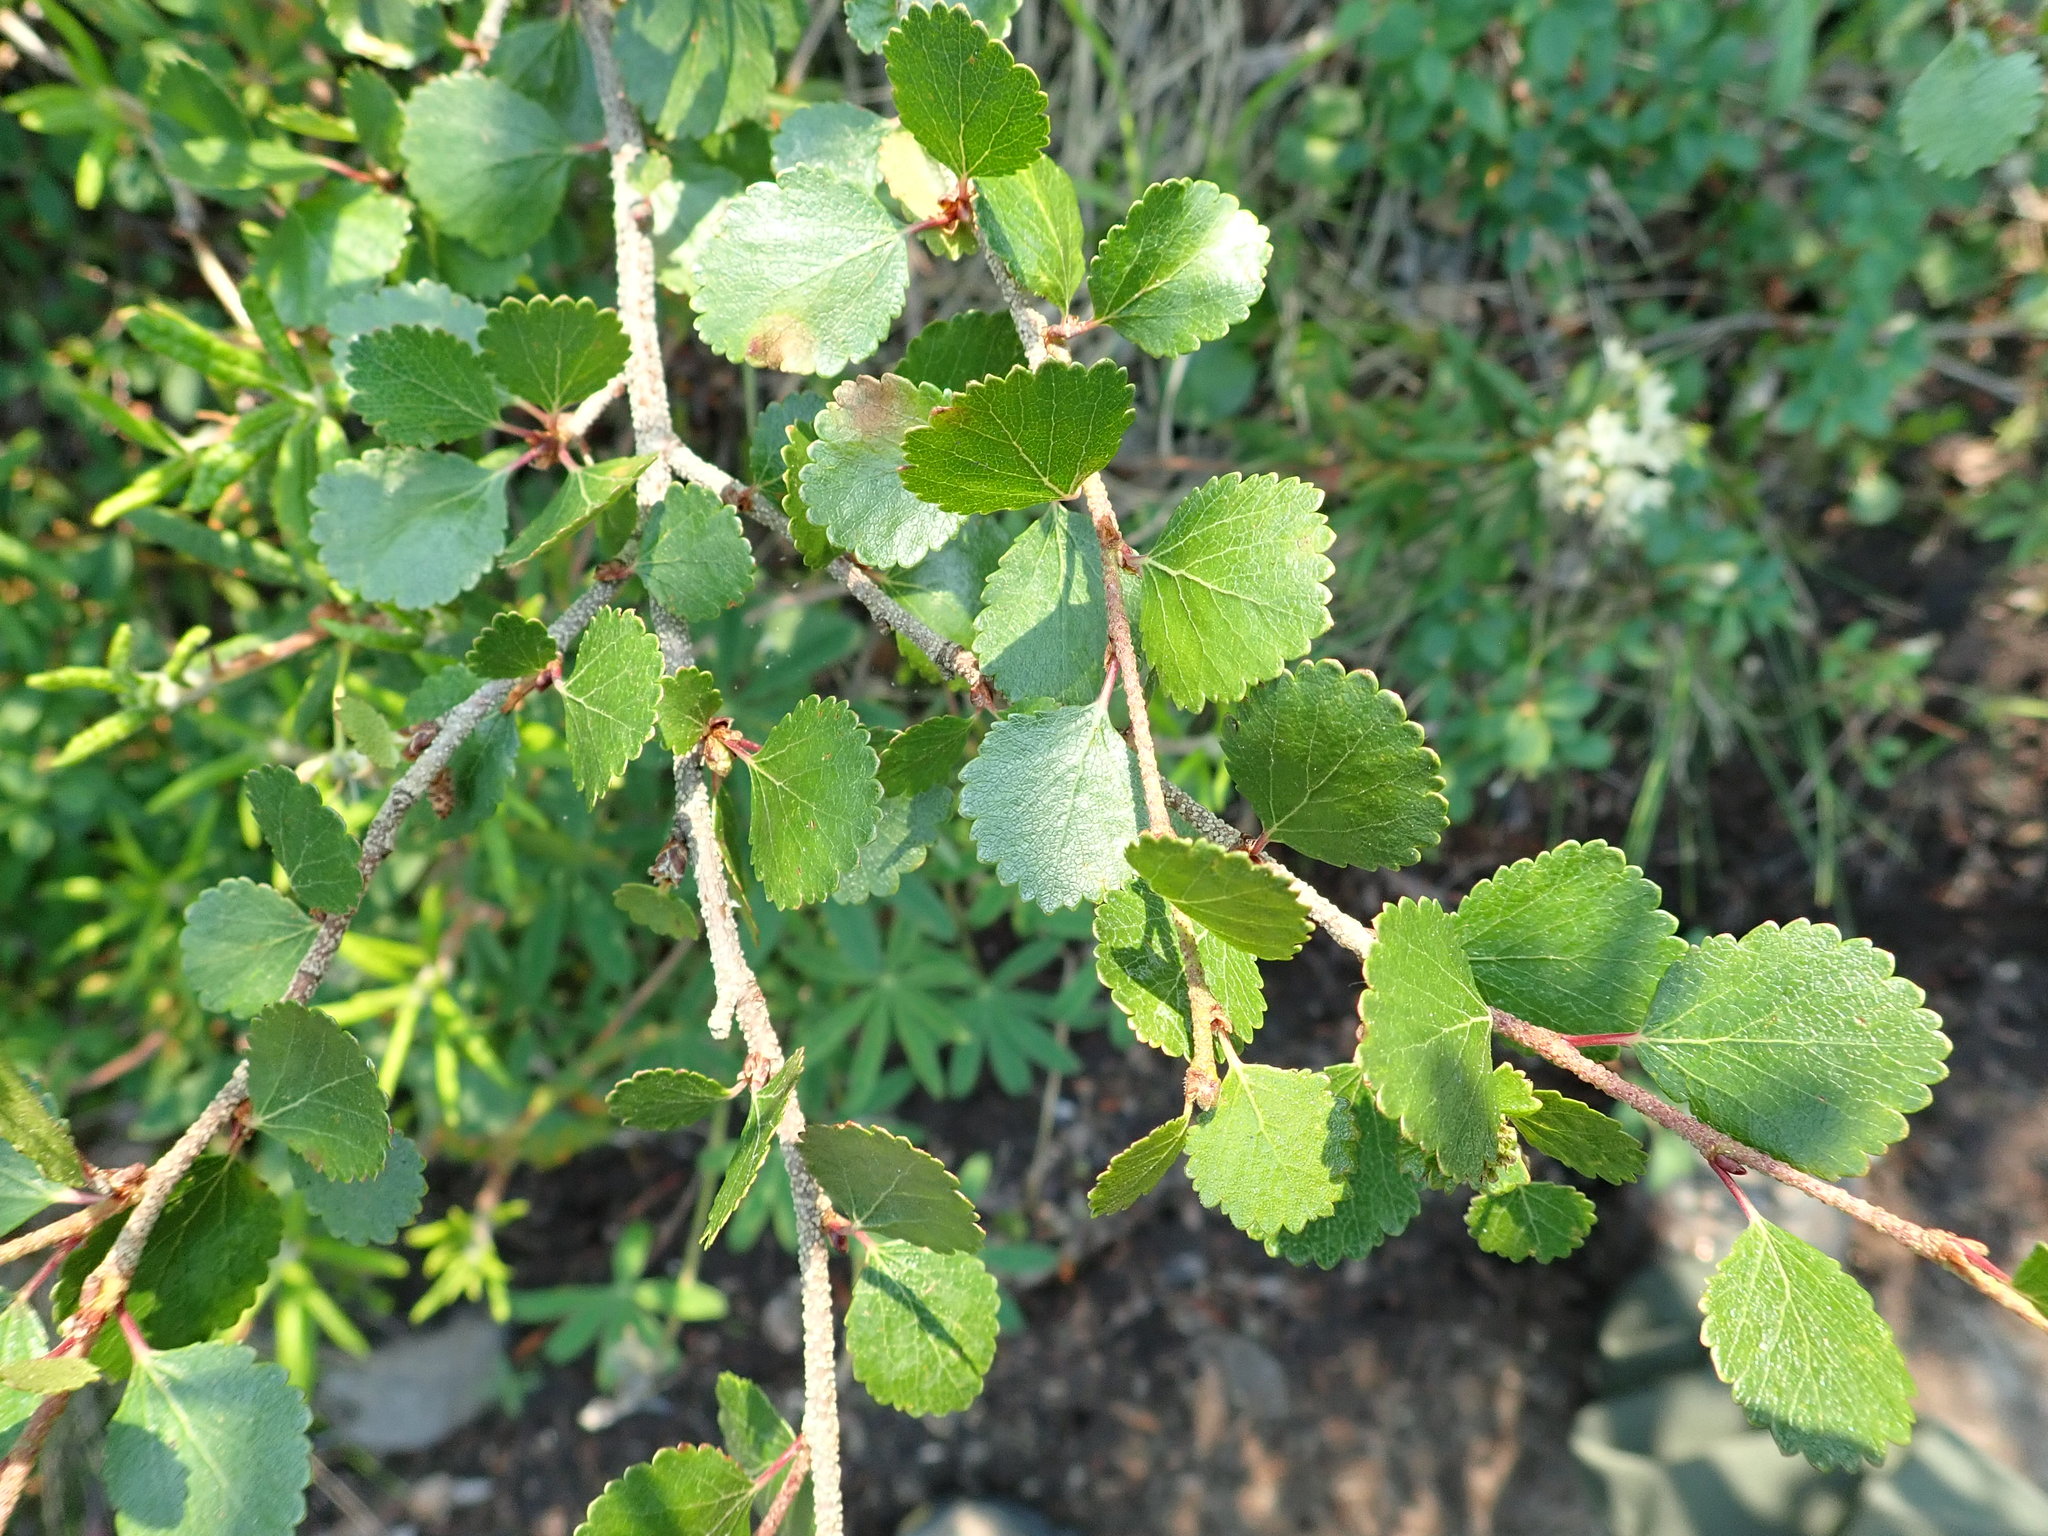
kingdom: Plantae
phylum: Tracheophyta
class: Magnoliopsida
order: Fagales
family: Betulaceae
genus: Betula
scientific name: Betula glandulosa
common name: Dwarf birch
